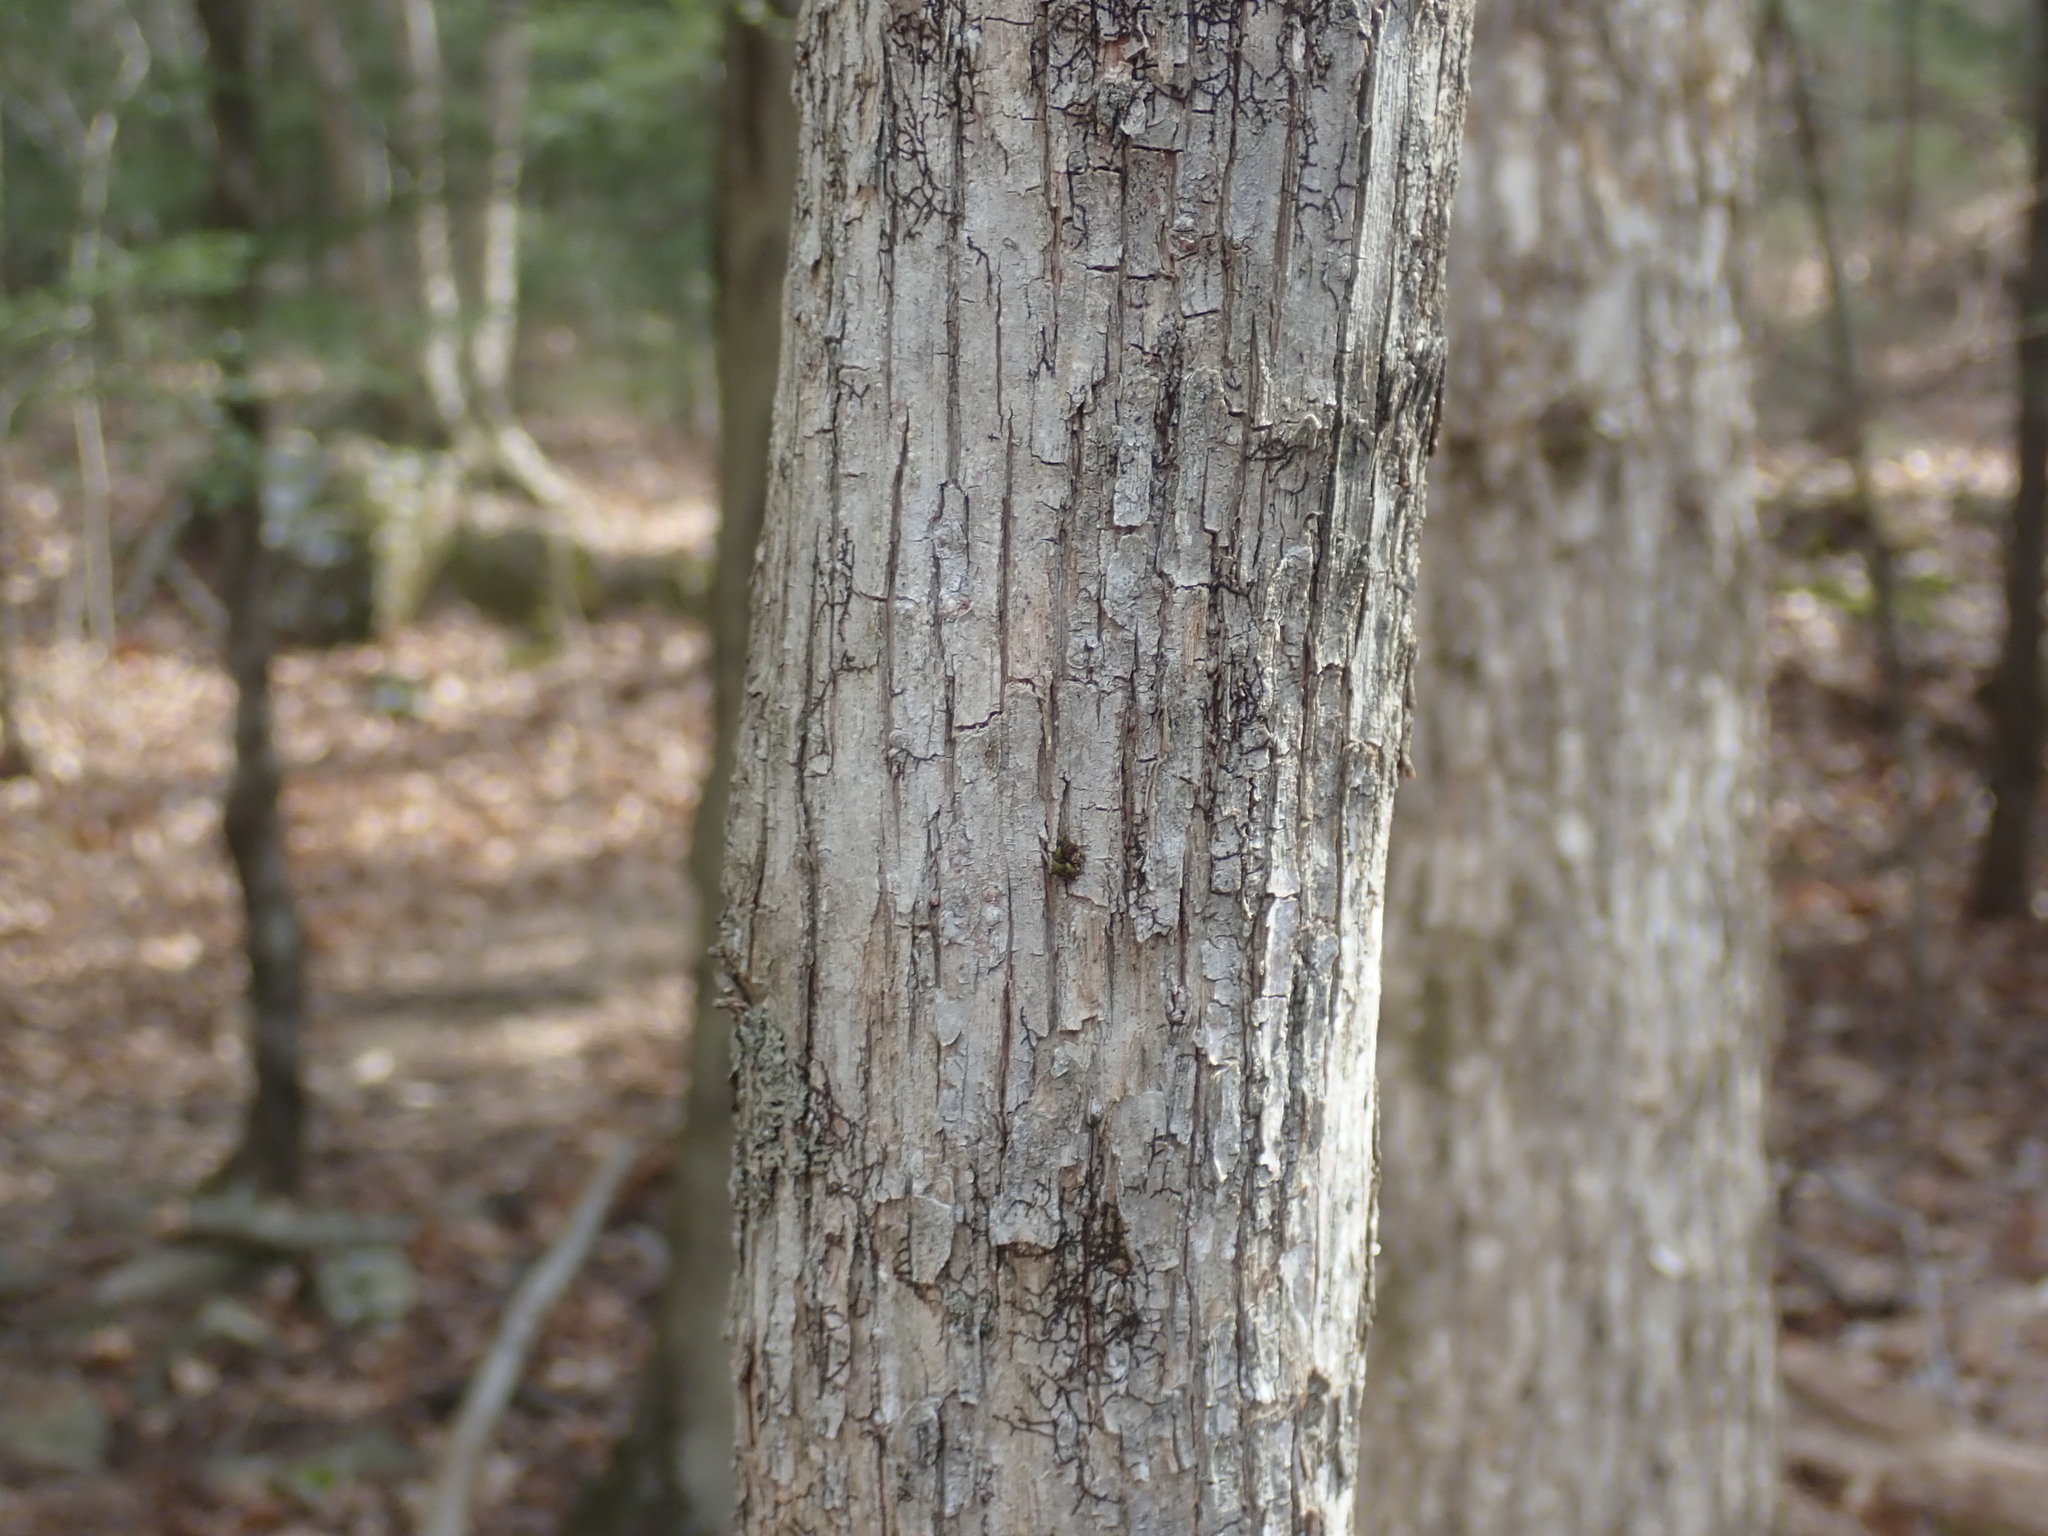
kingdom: Plantae
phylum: Tracheophyta
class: Magnoliopsida
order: Fagales
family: Betulaceae
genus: Ostrya
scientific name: Ostrya virginiana
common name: Ironwood
